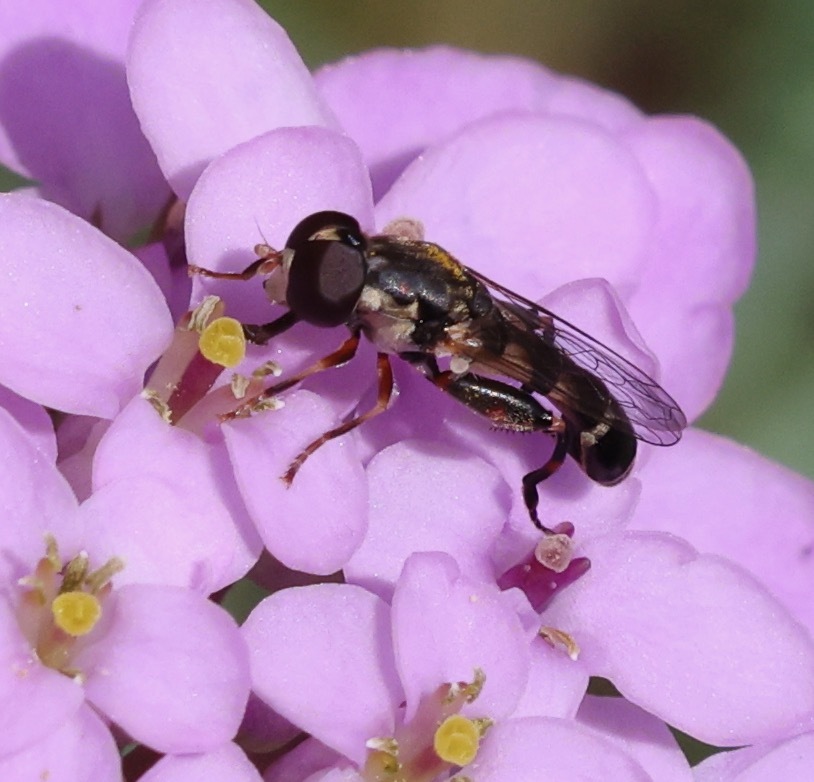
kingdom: Animalia
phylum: Arthropoda
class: Insecta
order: Diptera
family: Syrphidae
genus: Syritta
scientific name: Syritta pipiens
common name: Hover fly
